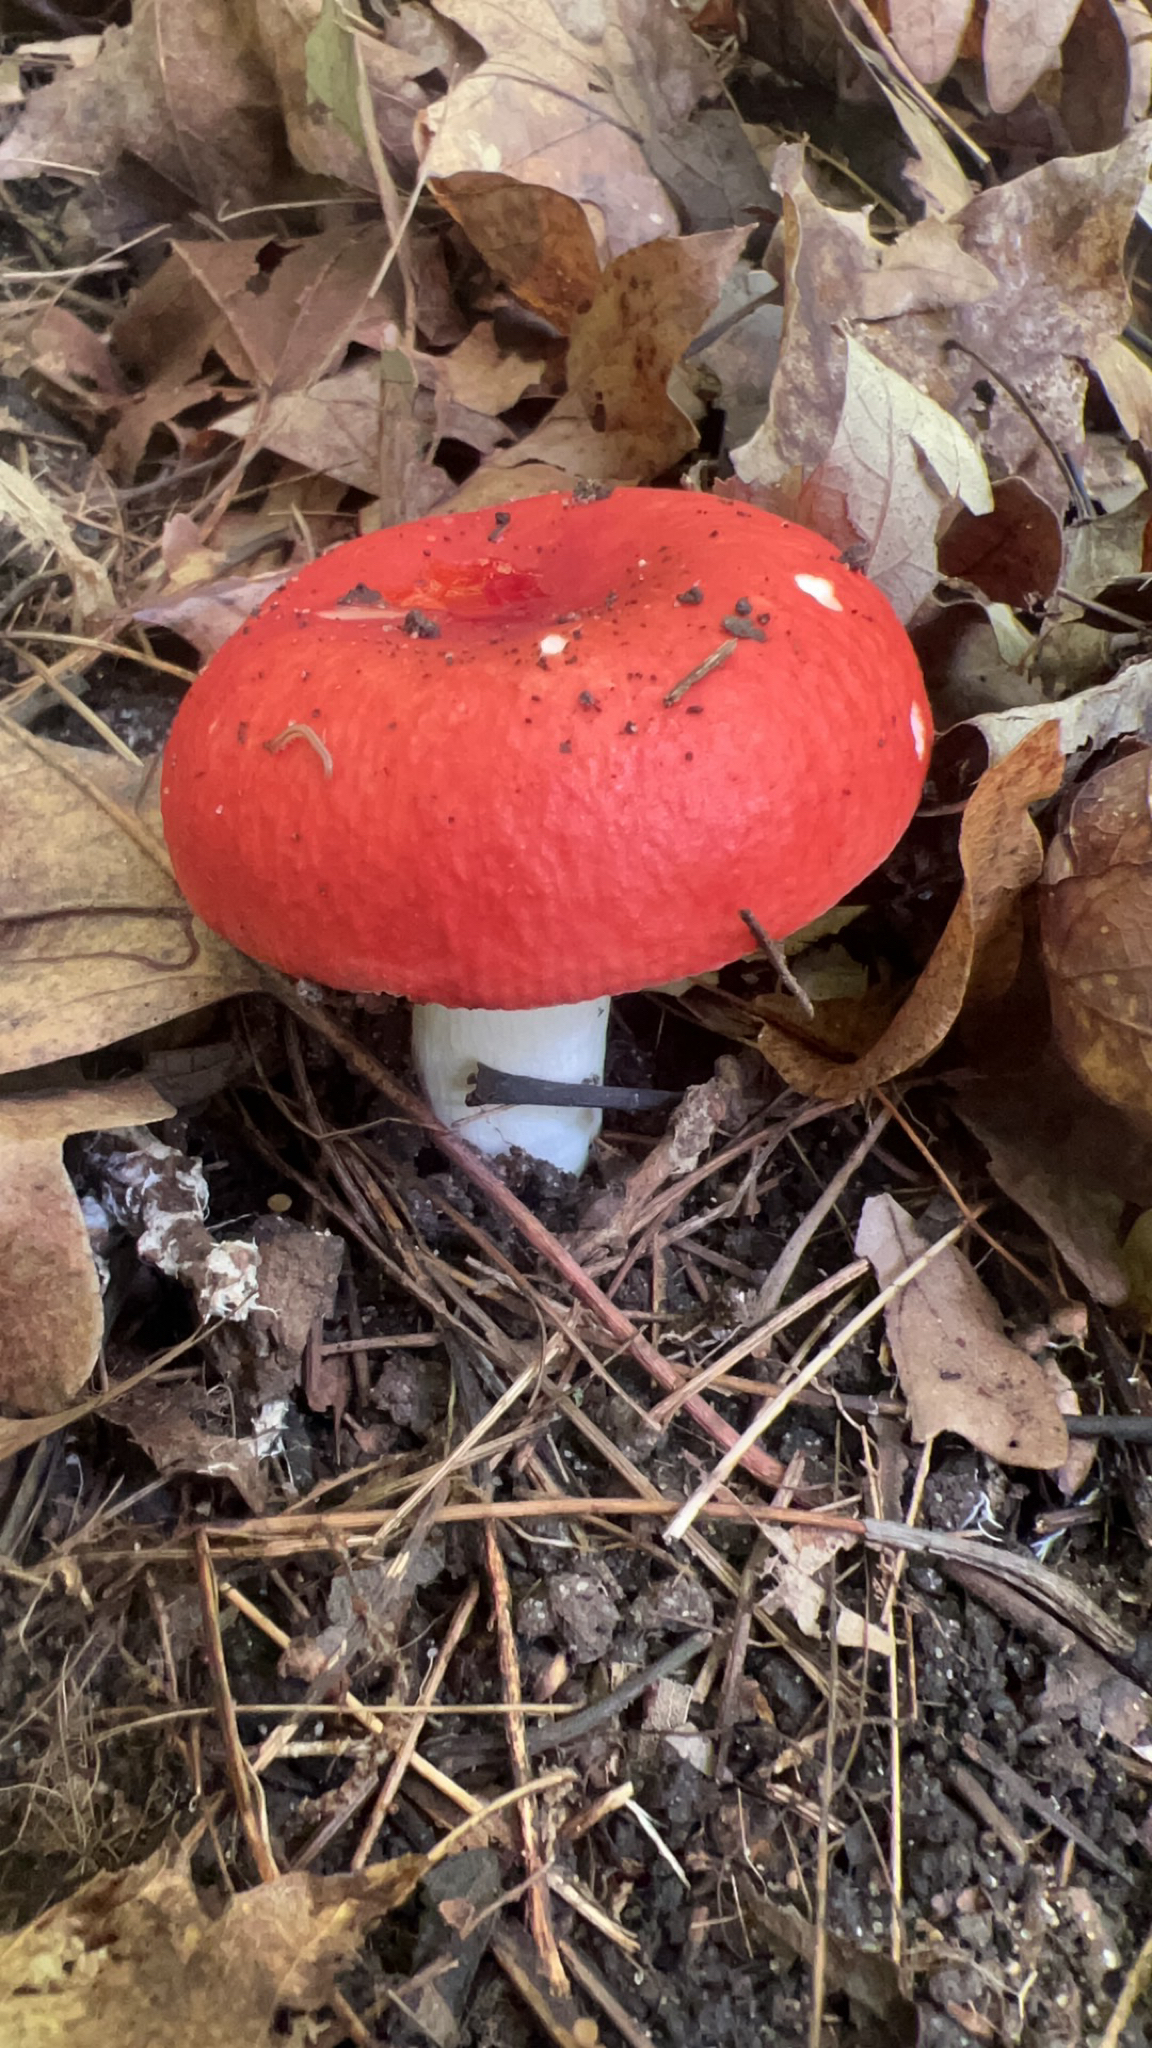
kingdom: Fungi
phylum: Basidiomycota
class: Agaricomycetes
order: Russulales
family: Russulaceae
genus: Russula
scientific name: Russula
